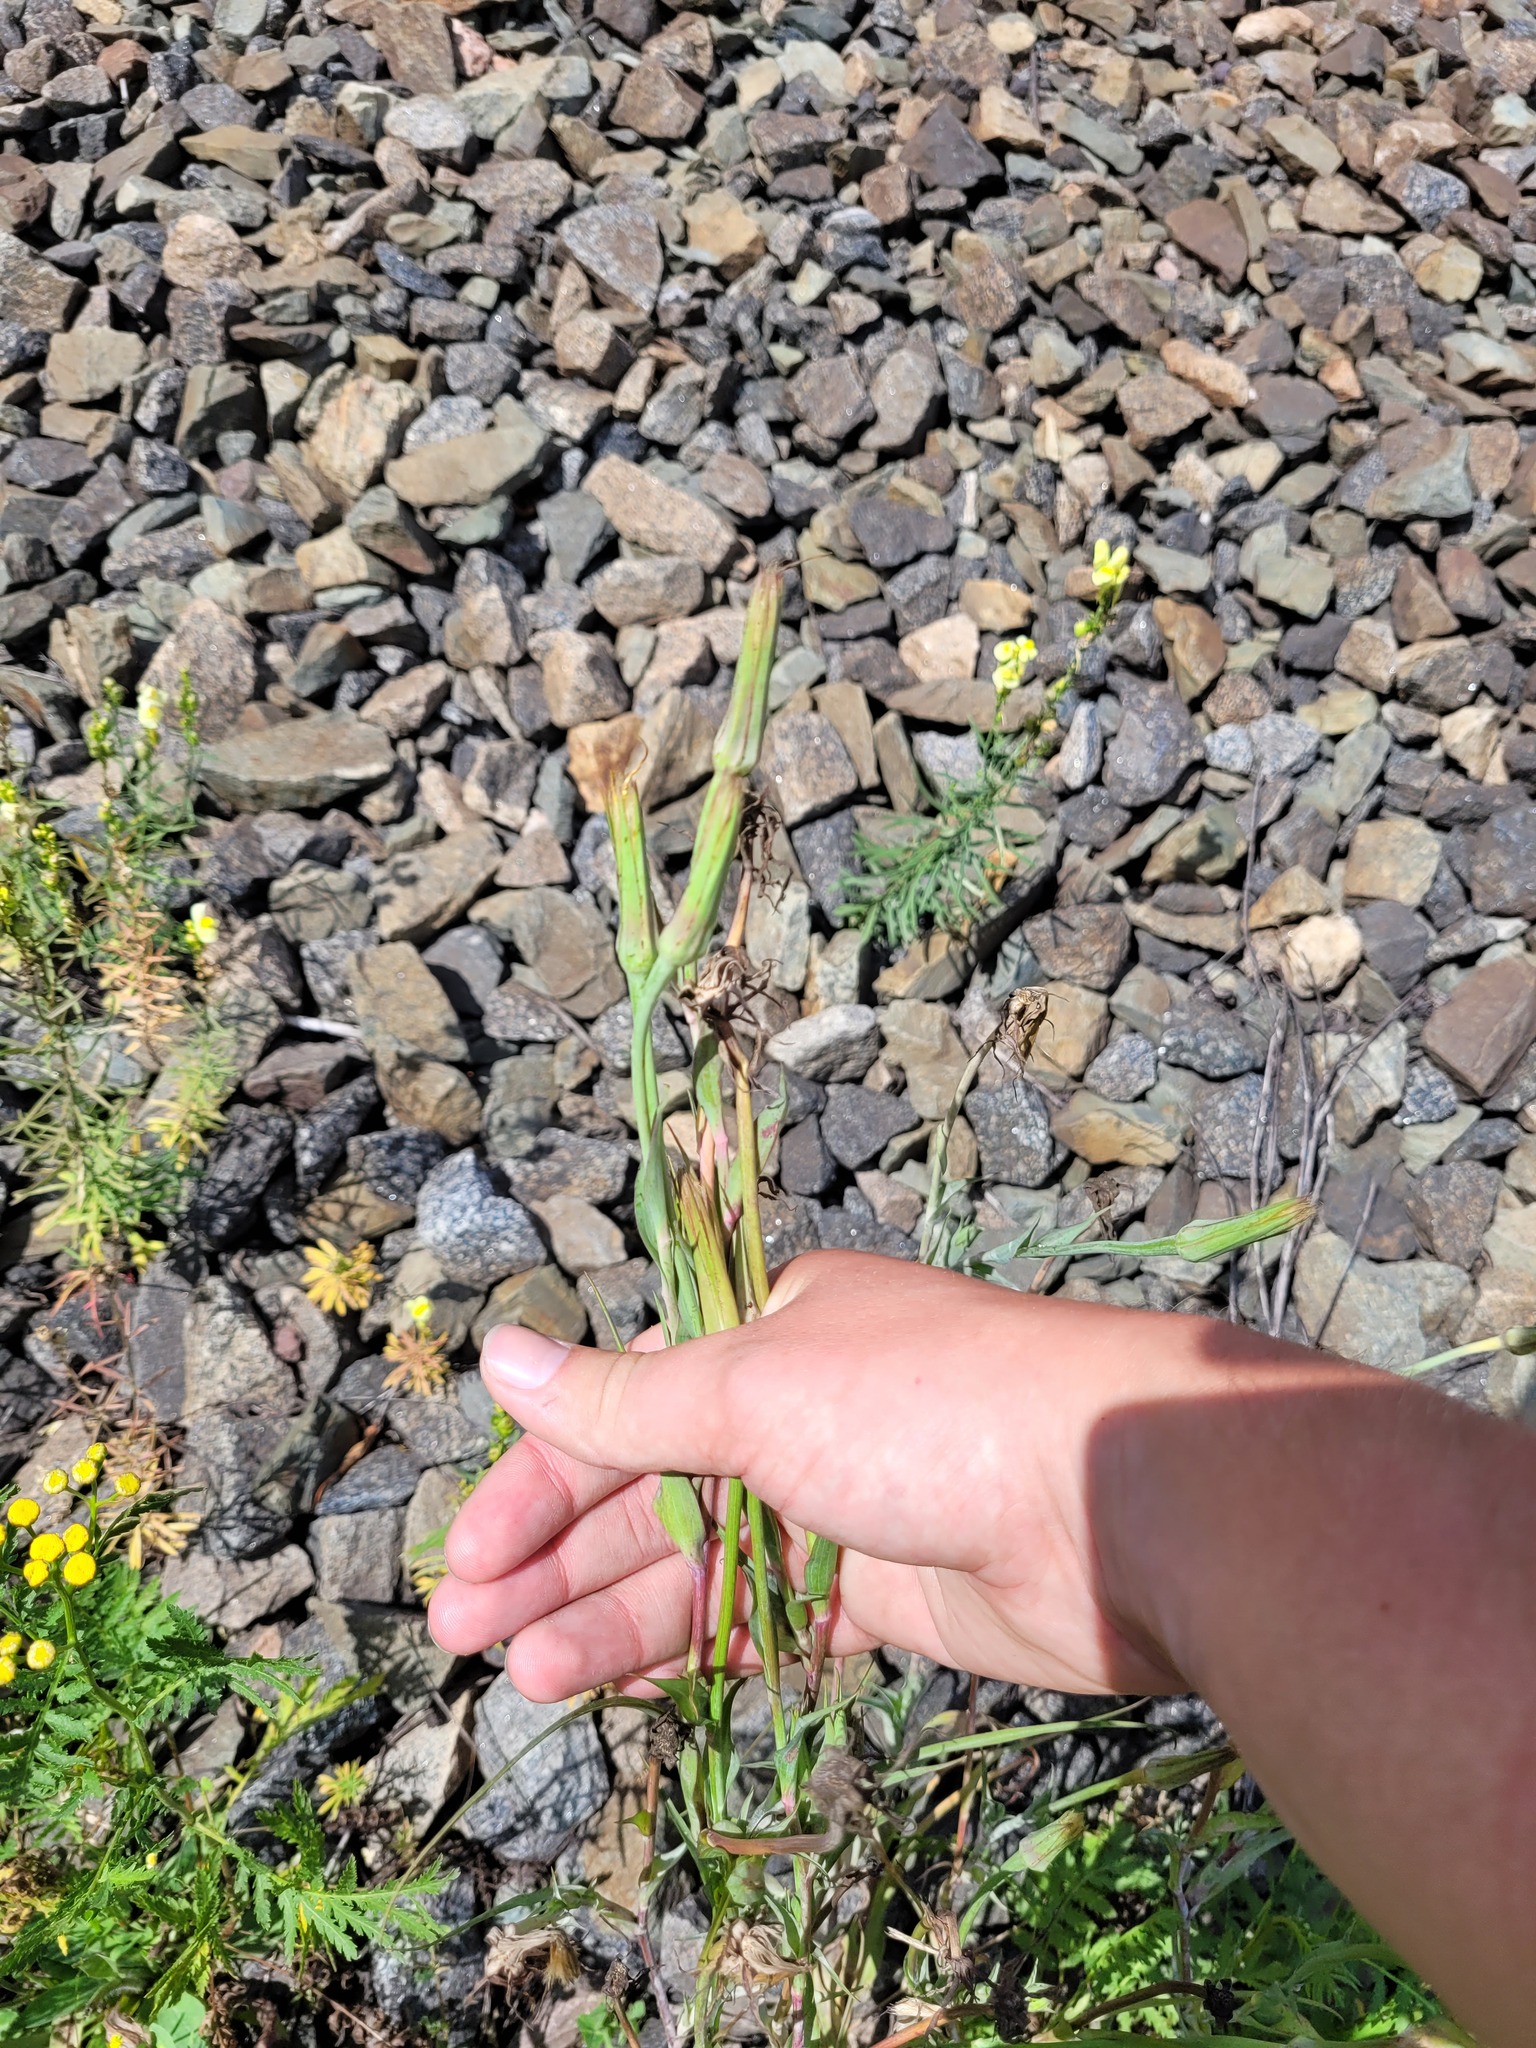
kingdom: Plantae
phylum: Tracheophyta
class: Magnoliopsida
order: Asterales
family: Asteraceae
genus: Tragopogon
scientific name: Tragopogon dubius
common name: Yellow salsify
